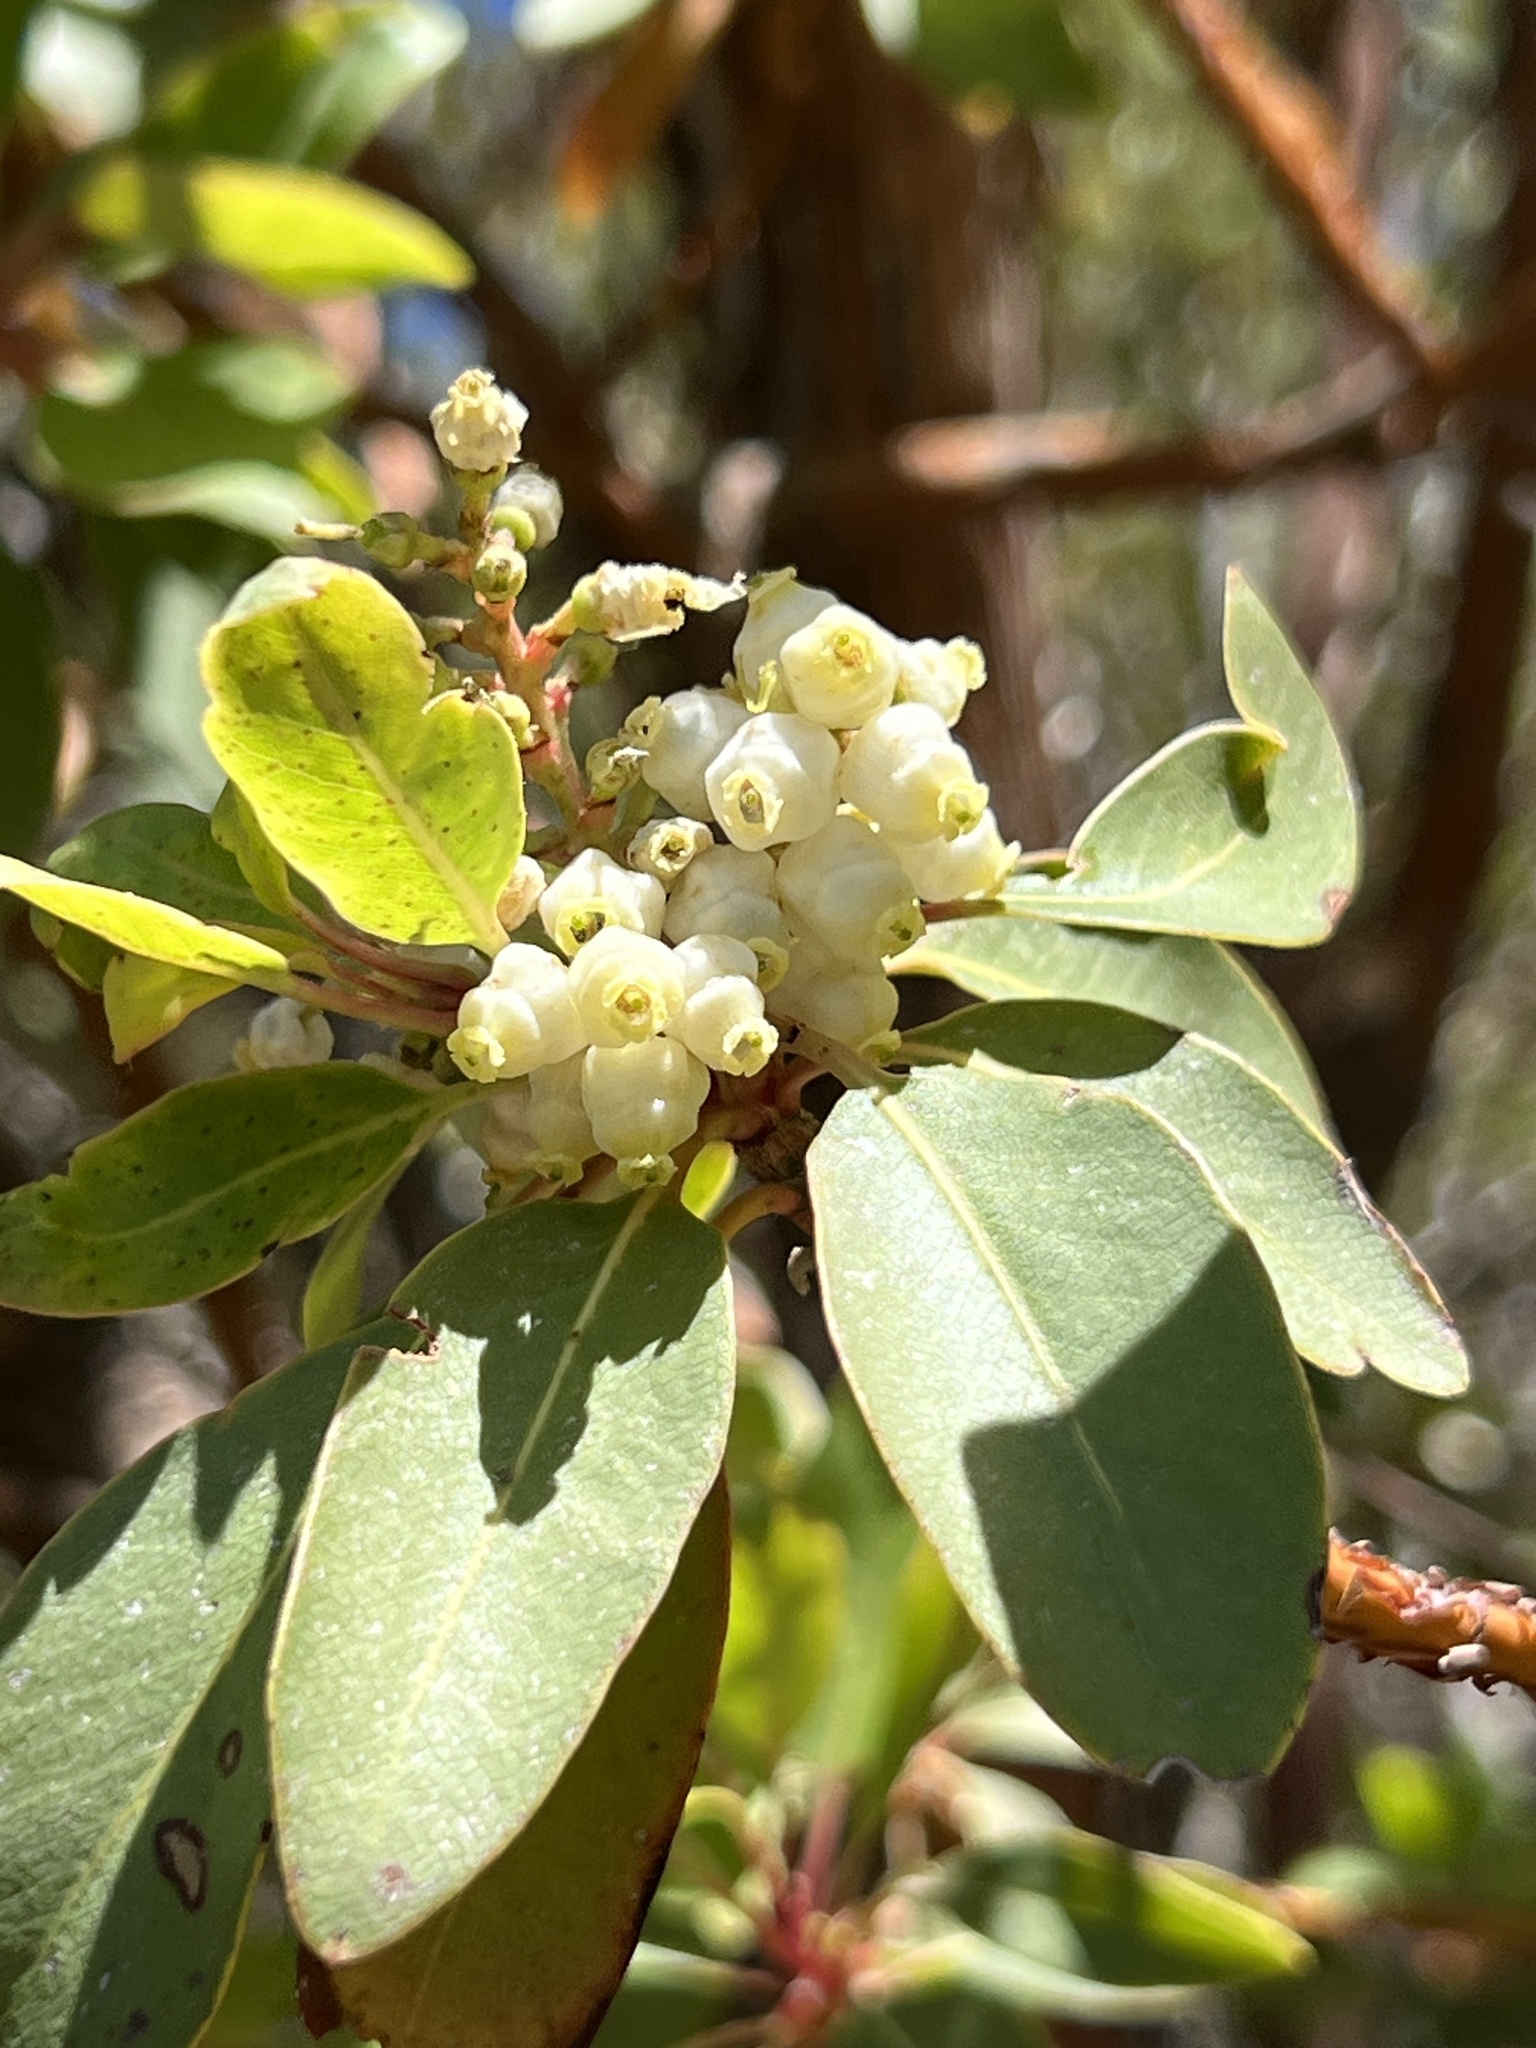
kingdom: Plantae
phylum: Tracheophyta
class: Magnoliopsida
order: Ericales
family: Ericaceae
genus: Arbutus
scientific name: Arbutus arizonica
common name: Arizona madrone
